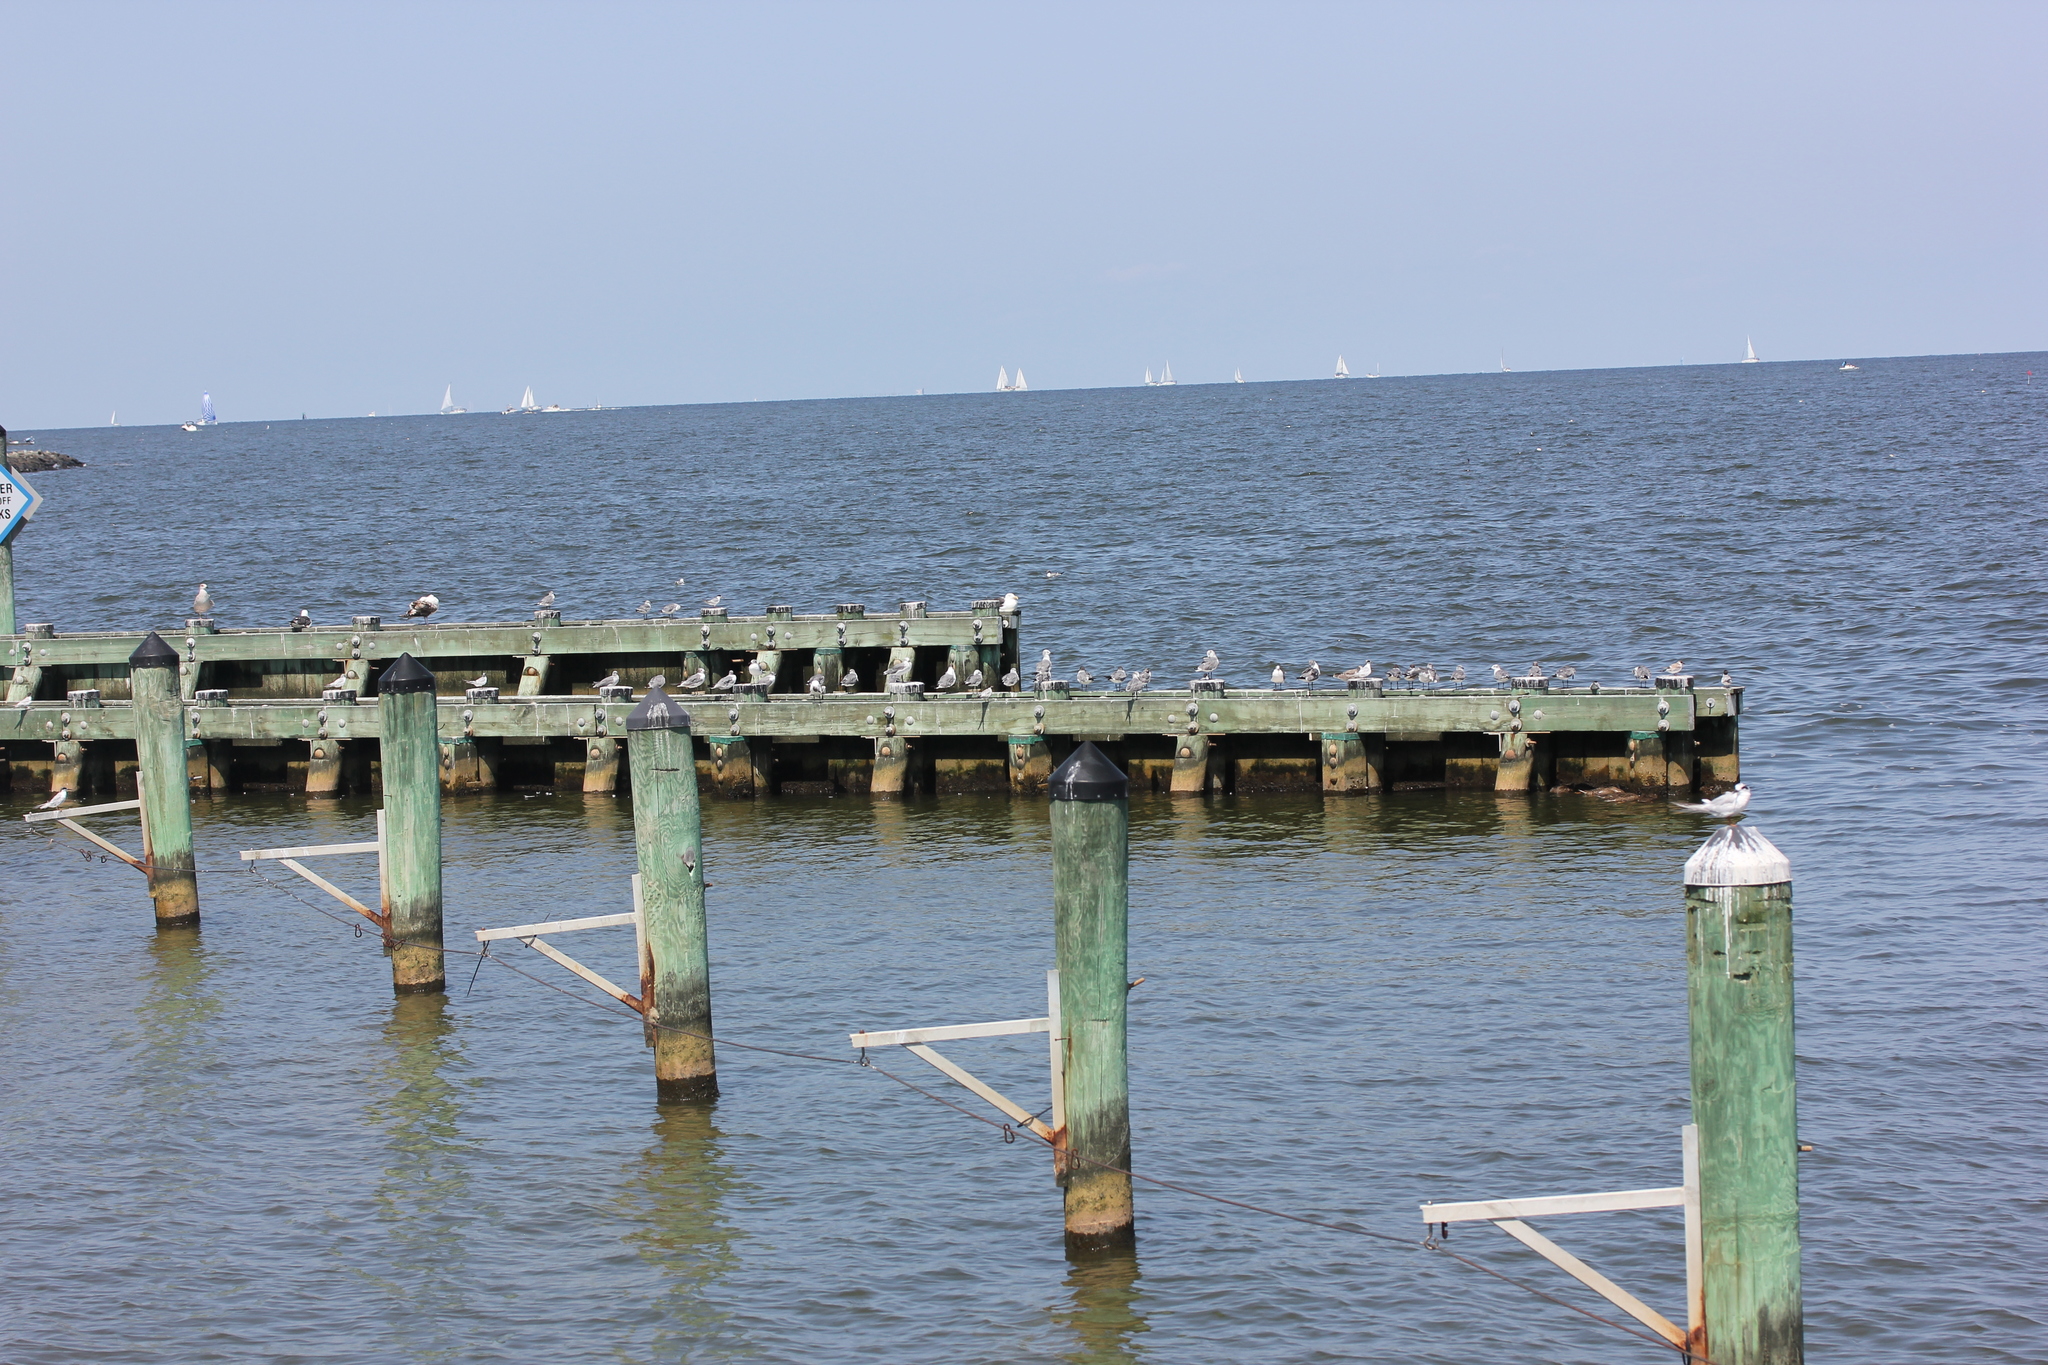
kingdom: Animalia
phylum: Chordata
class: Aves
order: Charadriiformes
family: Laridae
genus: Sterna
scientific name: Sterna forsteri
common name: Forster's tern
